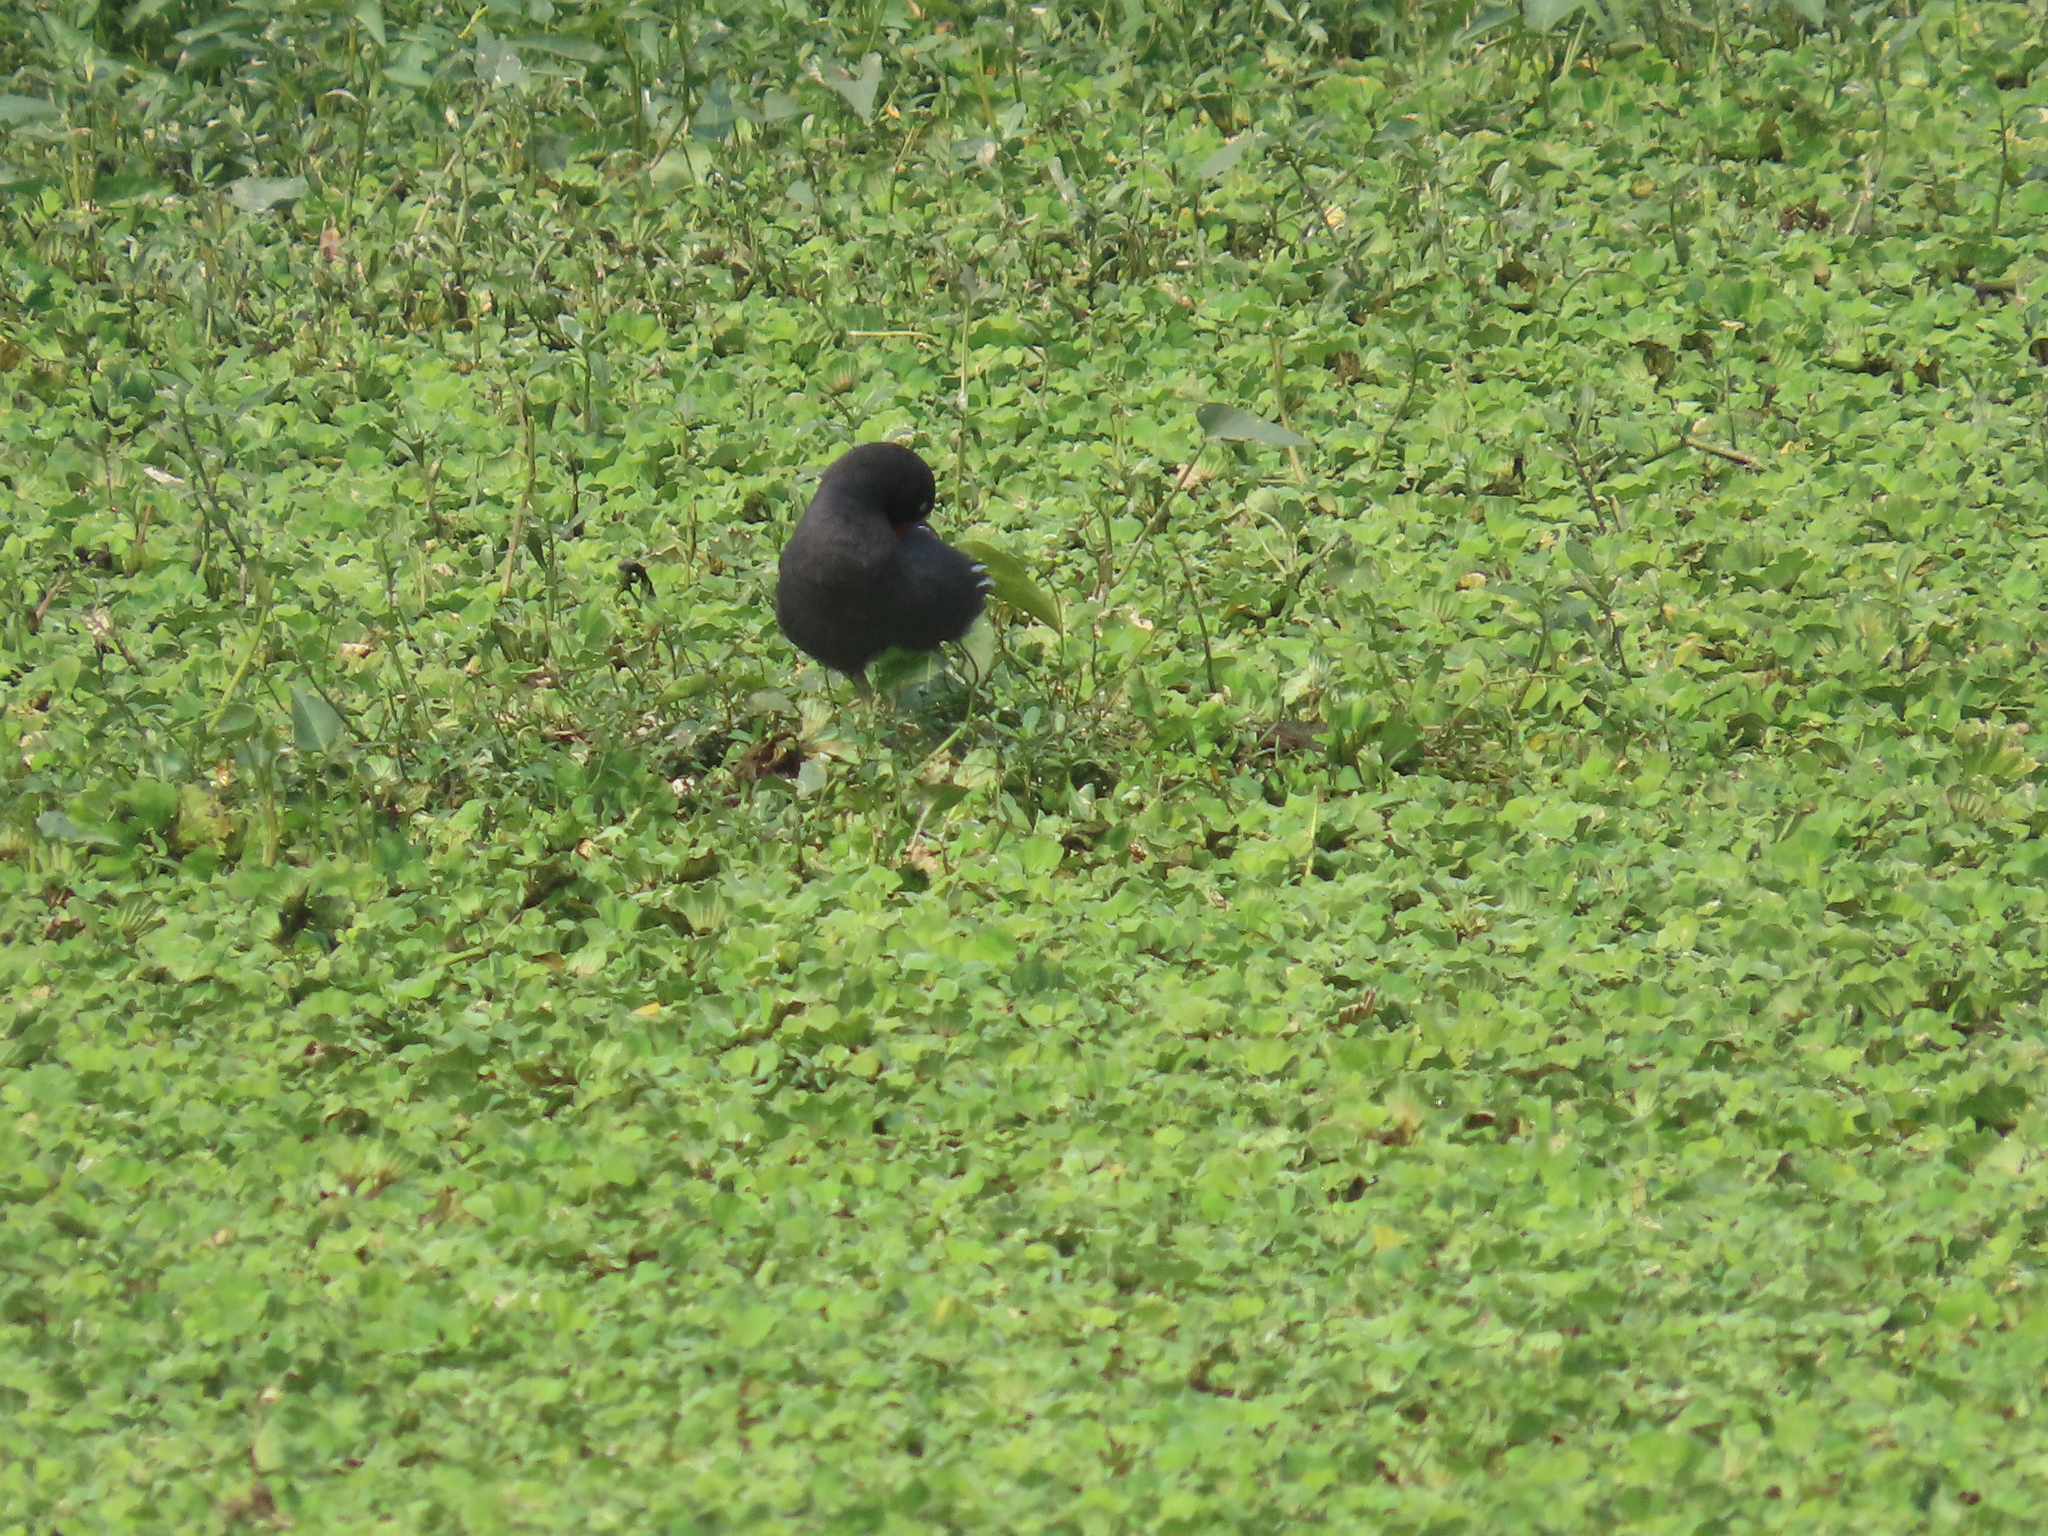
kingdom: Animalia
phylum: Chordata
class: Aves
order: Gruiformes
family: Rallidae
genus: Gallinula
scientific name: Gallinula chloropus
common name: Common moorhen
